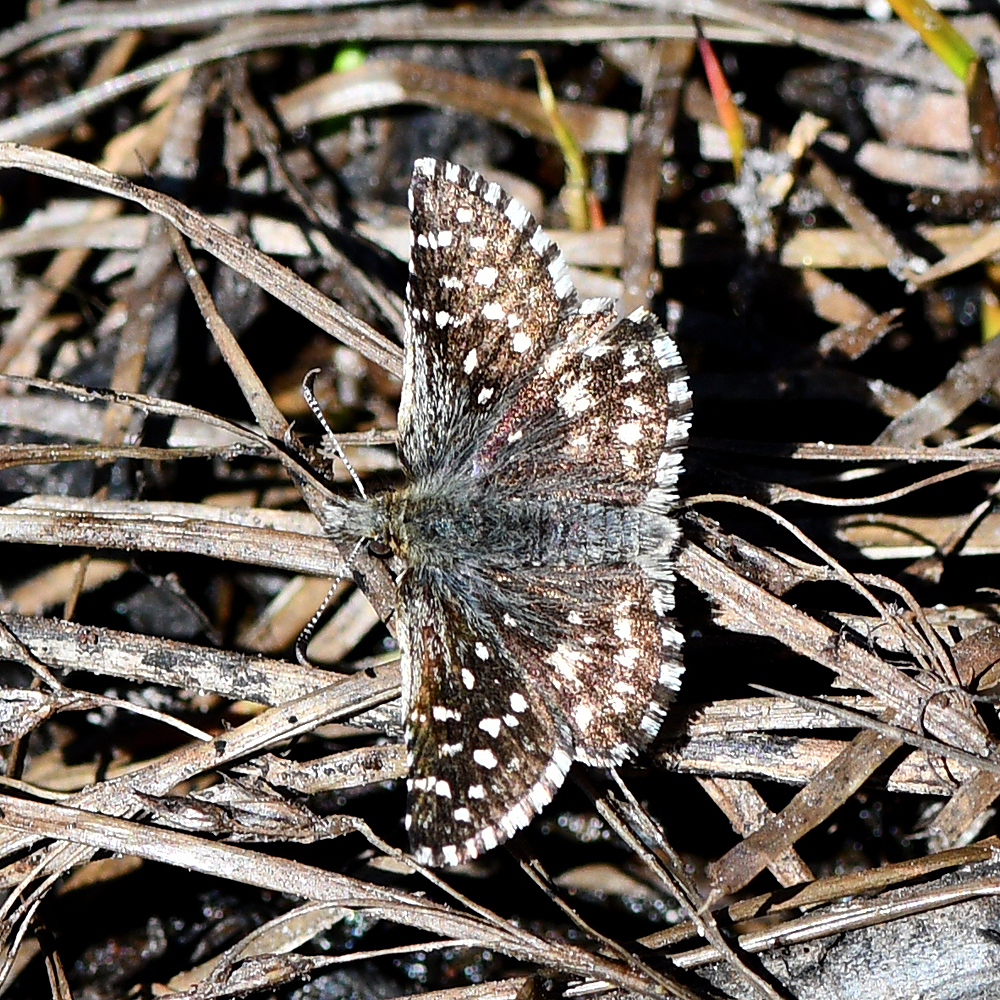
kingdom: Animalia
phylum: Arthropoda
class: Insecta
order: Lepidoptera
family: Hesperiidae
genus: Pyrgus
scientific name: Pyrgus ruralis
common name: Two-banded checkered-skipper
